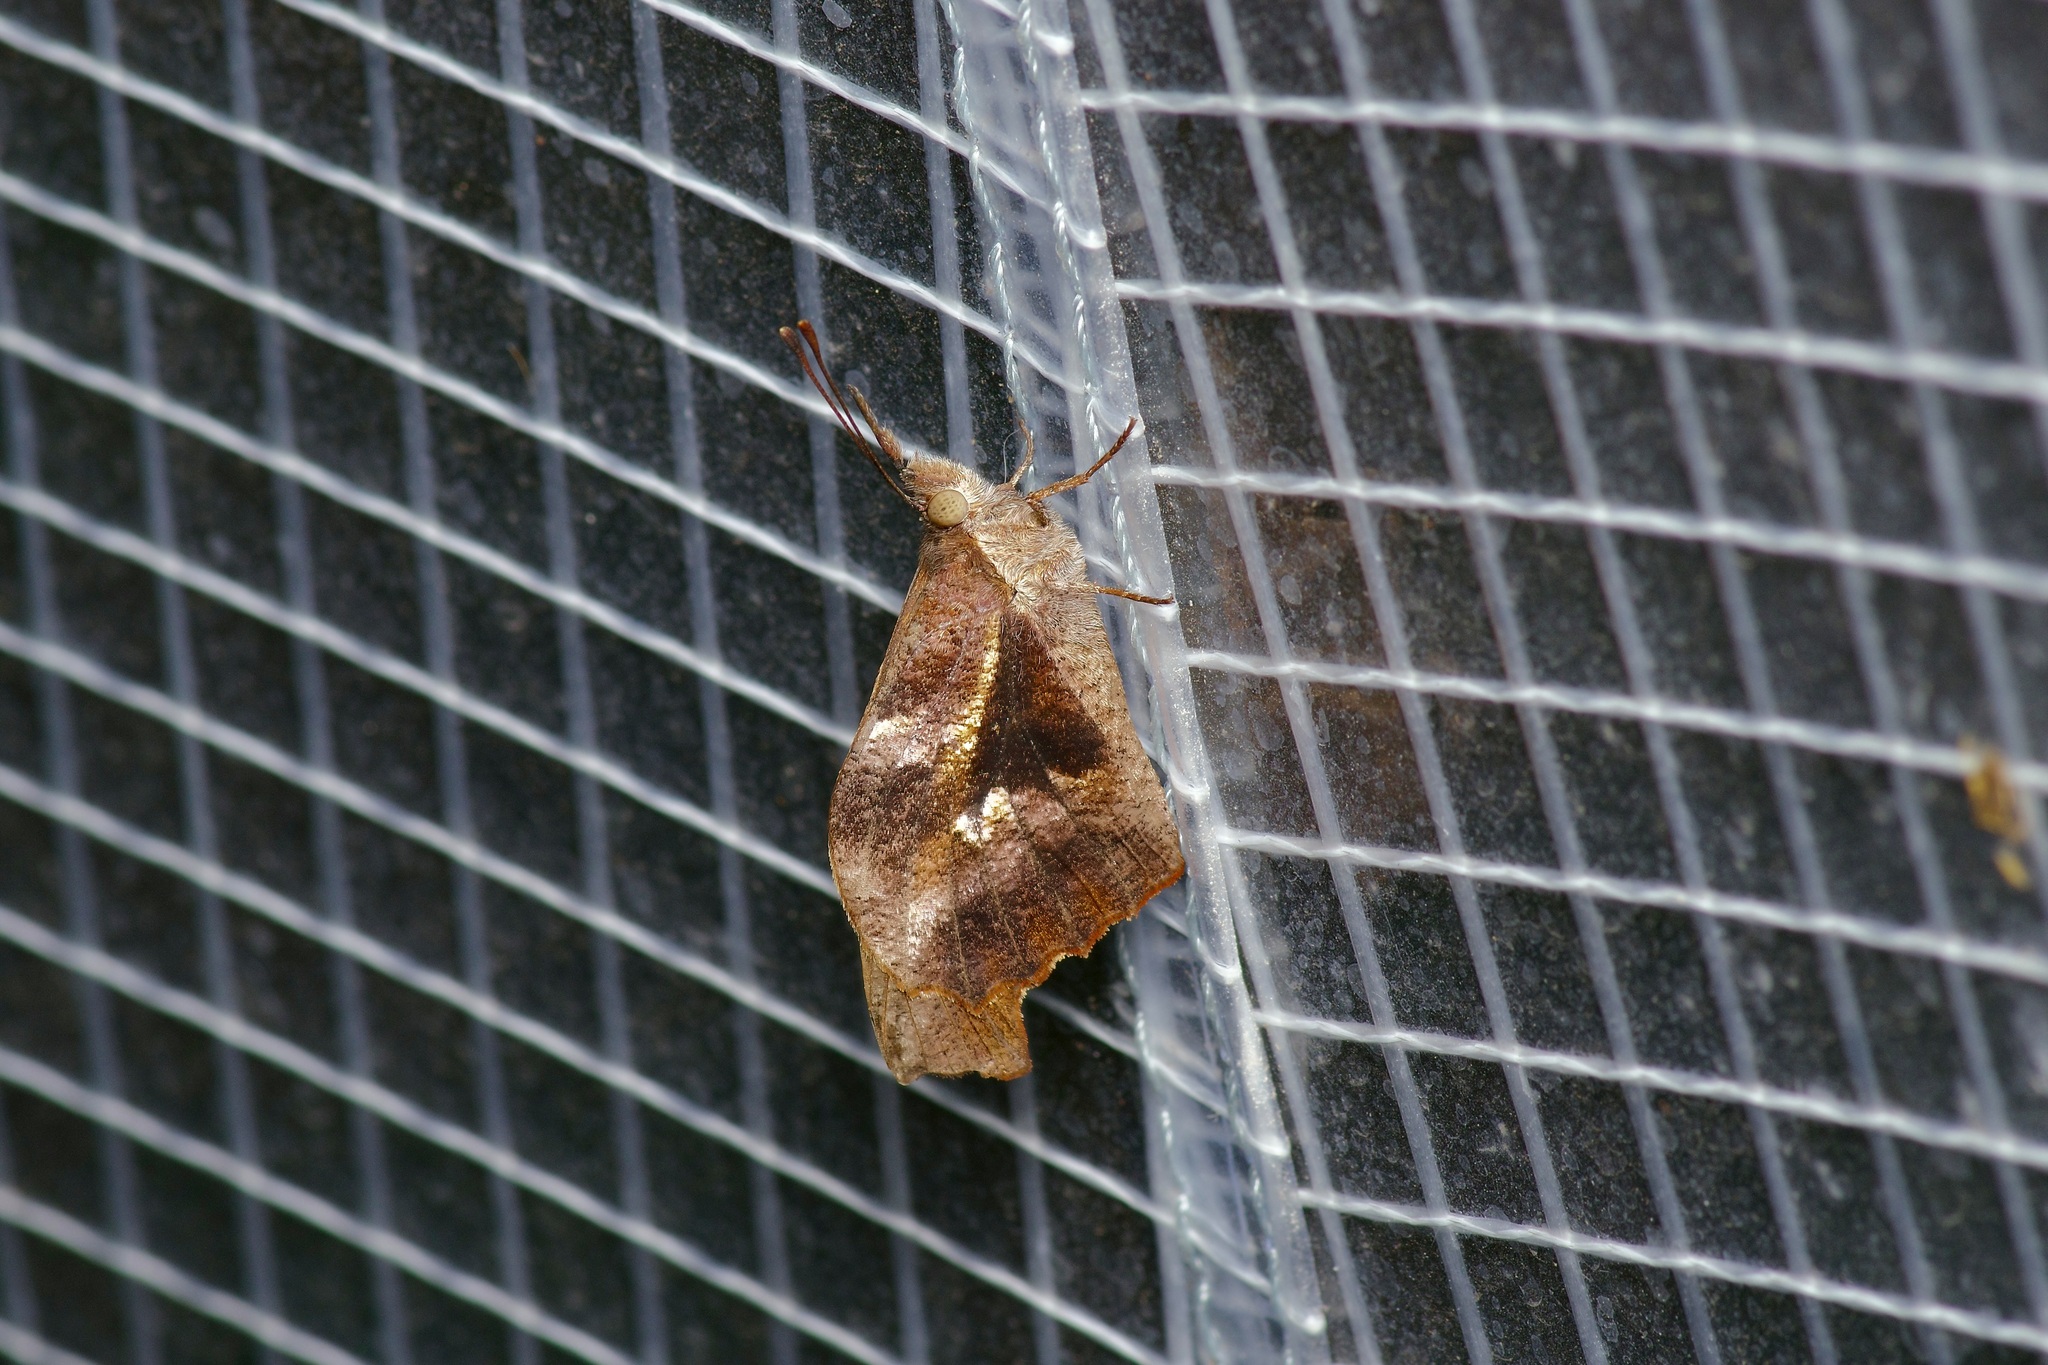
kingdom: Animalia
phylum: Arthropoda
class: Insecta
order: Lepidoptera
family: Nymphalidae
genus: Libytheana
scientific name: Libytheana carinenta
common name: American snout
